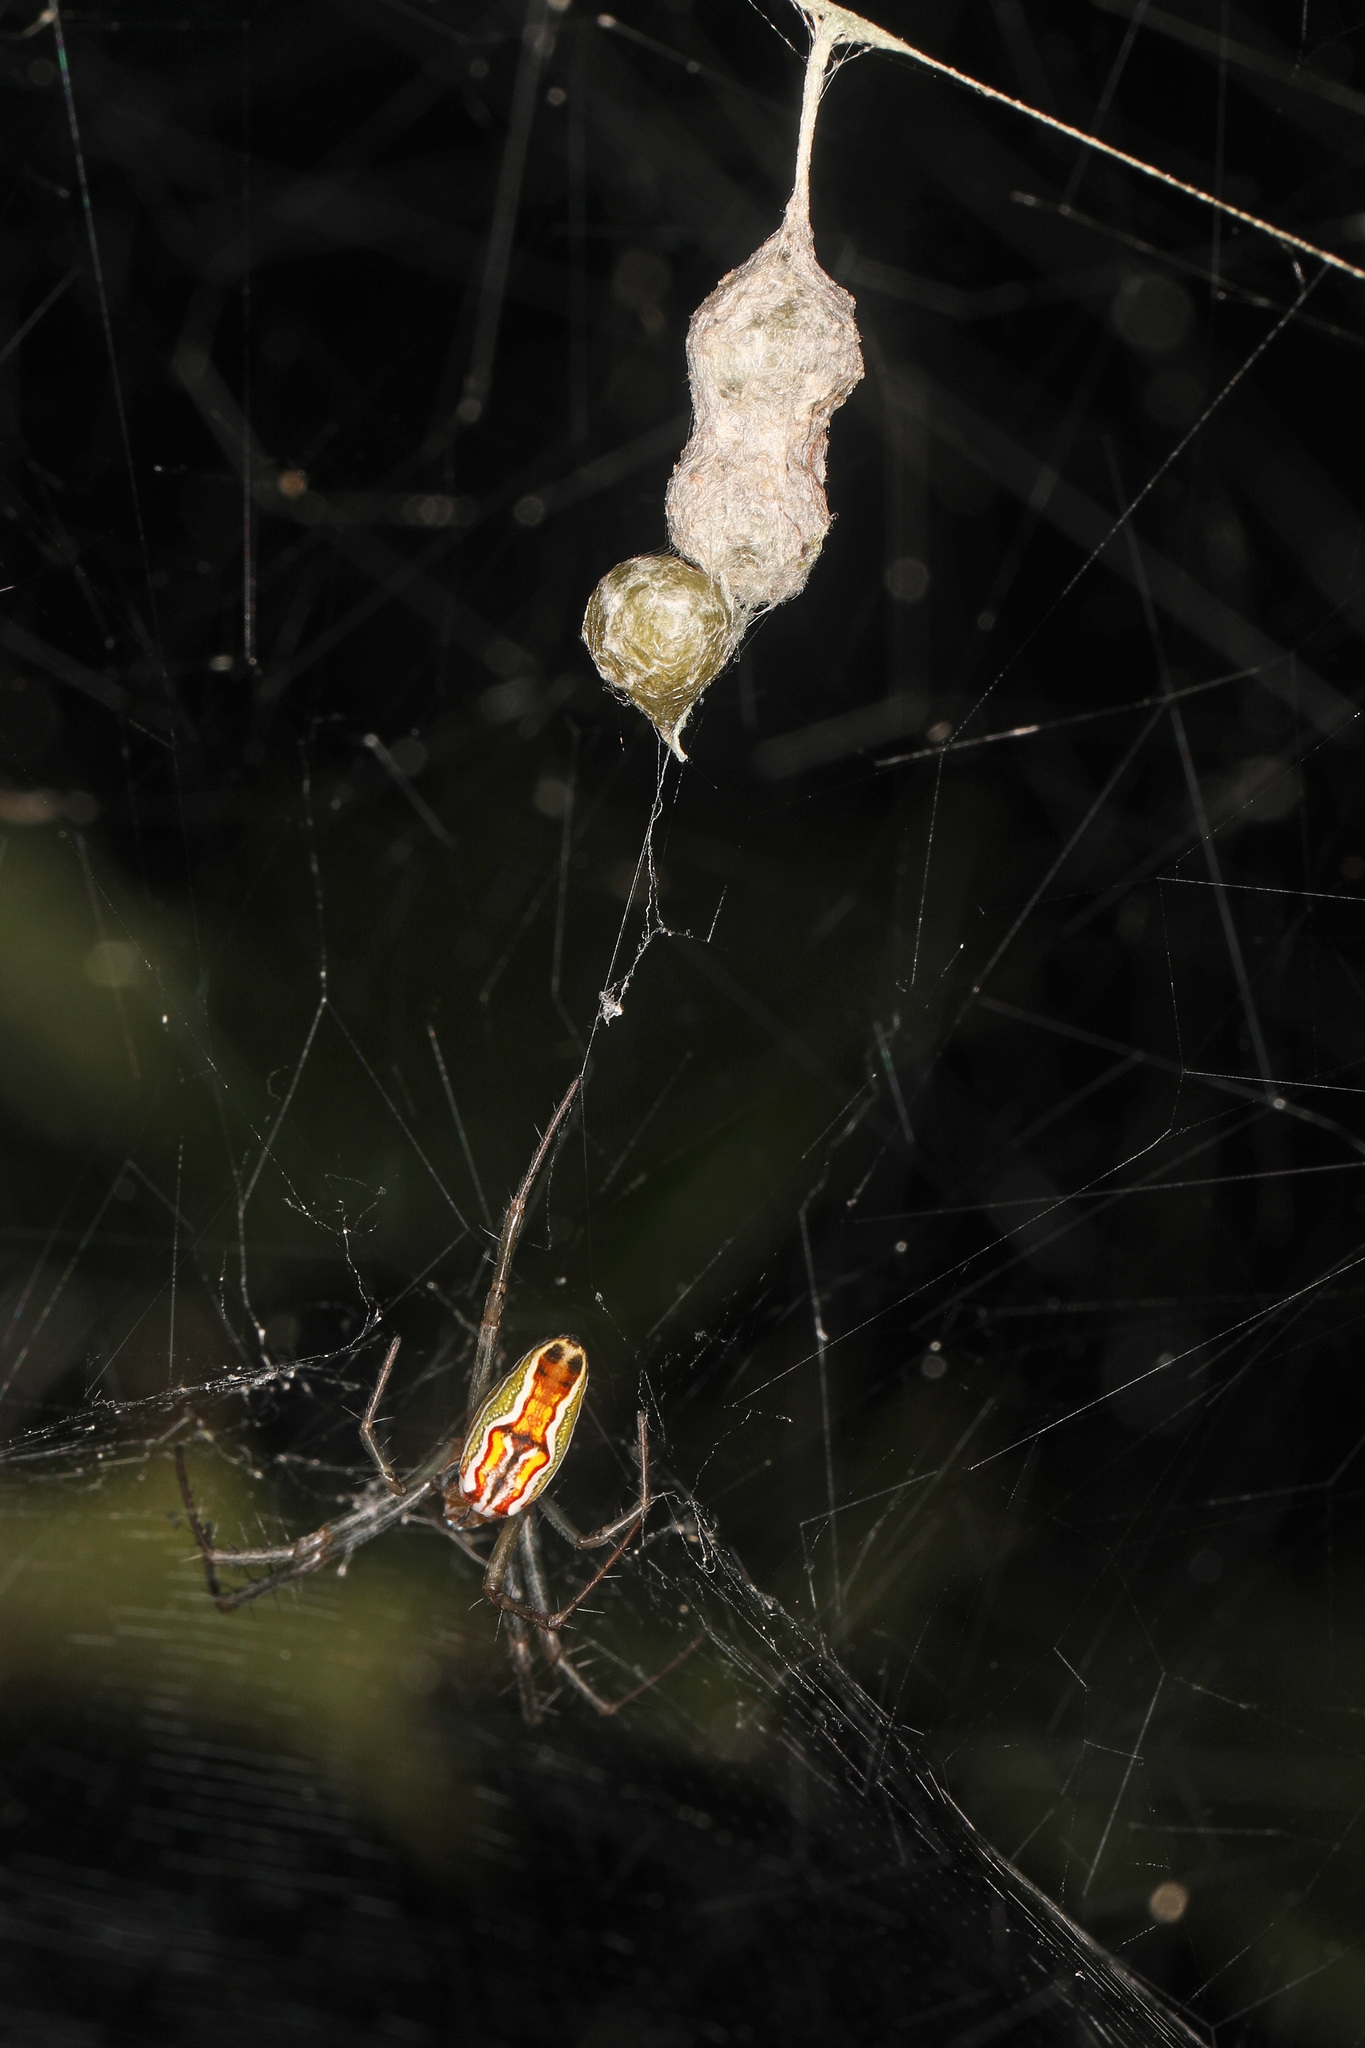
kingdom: Animalia
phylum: Arthropoda
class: Arachnida
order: Araneae
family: Araneidae
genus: Mecynogea
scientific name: Mecynogea lemniscata
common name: Orb weavers
